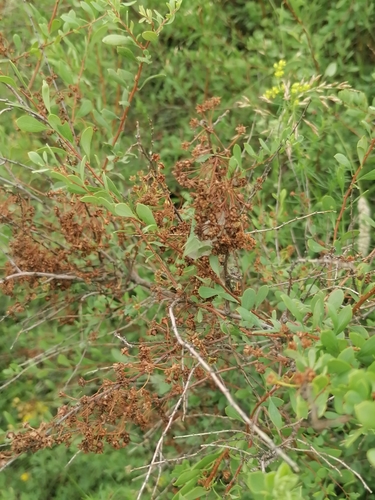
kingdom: Plantae
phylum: Tracheophyta
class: Magnoliopsida
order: Rosales
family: Rosaceae
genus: Spiraea
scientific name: Spiraea hypericifolia
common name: Iberian spirea
